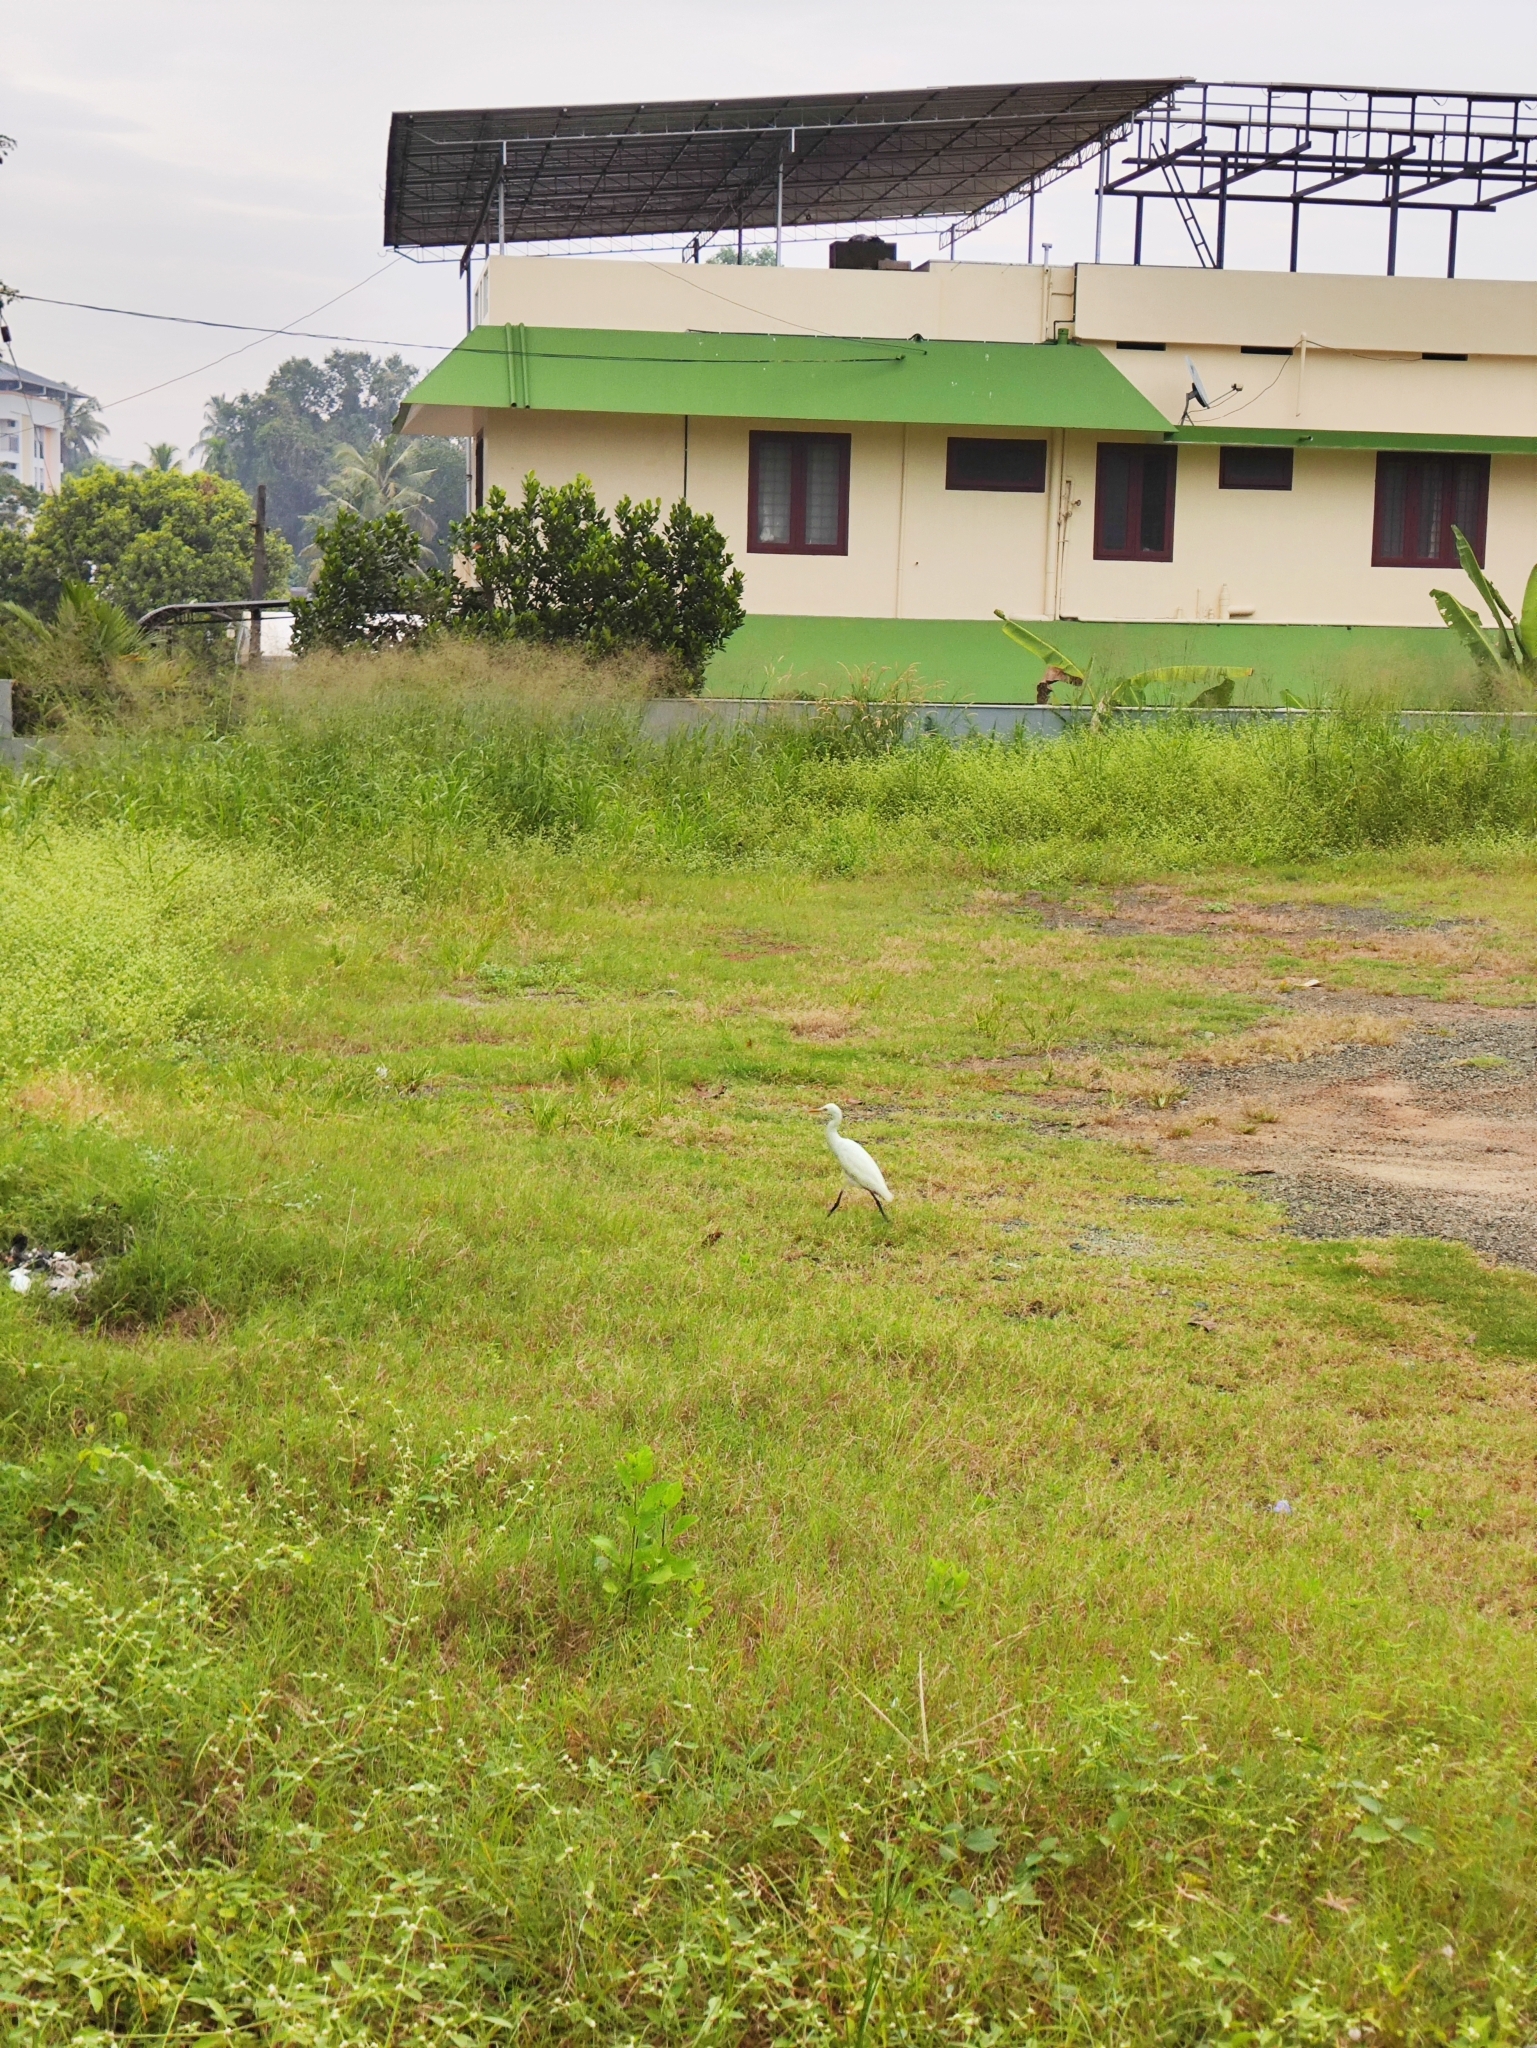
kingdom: Animalia
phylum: Chordata
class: Aves
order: Pelecaniformes
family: Ardeidae
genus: Bubulcus
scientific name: Bubulcus coromandus
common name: Eastern cattle egret
